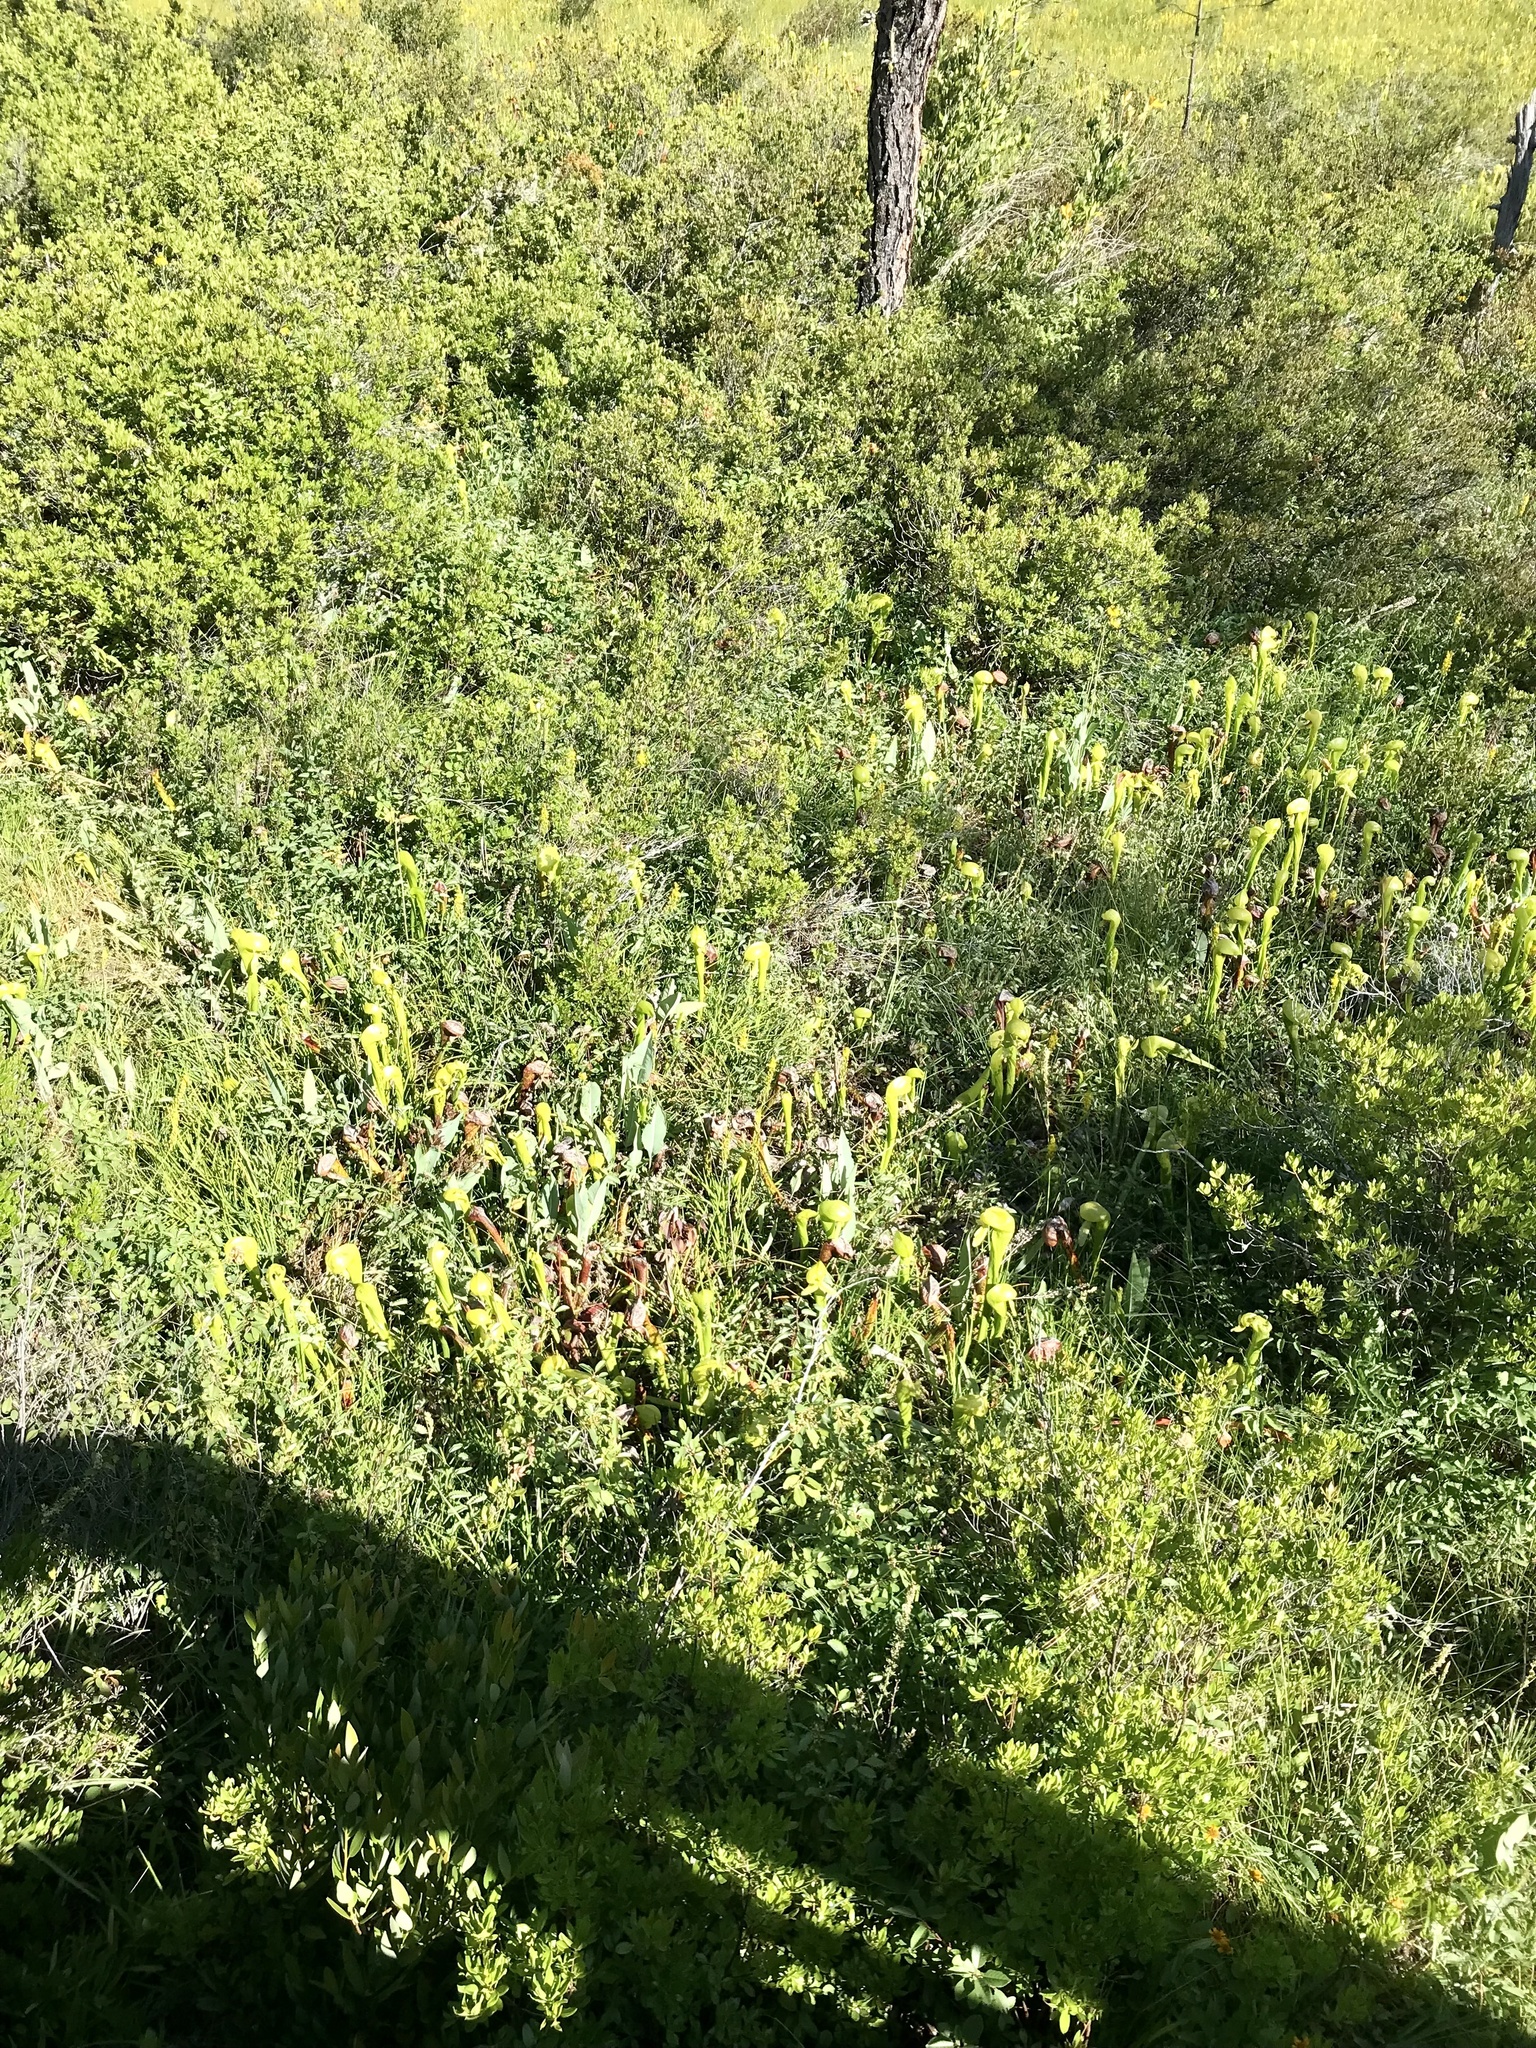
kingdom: Plantae
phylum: Tracheophyta
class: Magnoliopsida
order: Ericales
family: Sarraceniaceae
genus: Darlingtonia
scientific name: Darlingtonia californica
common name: California pitcher plant
